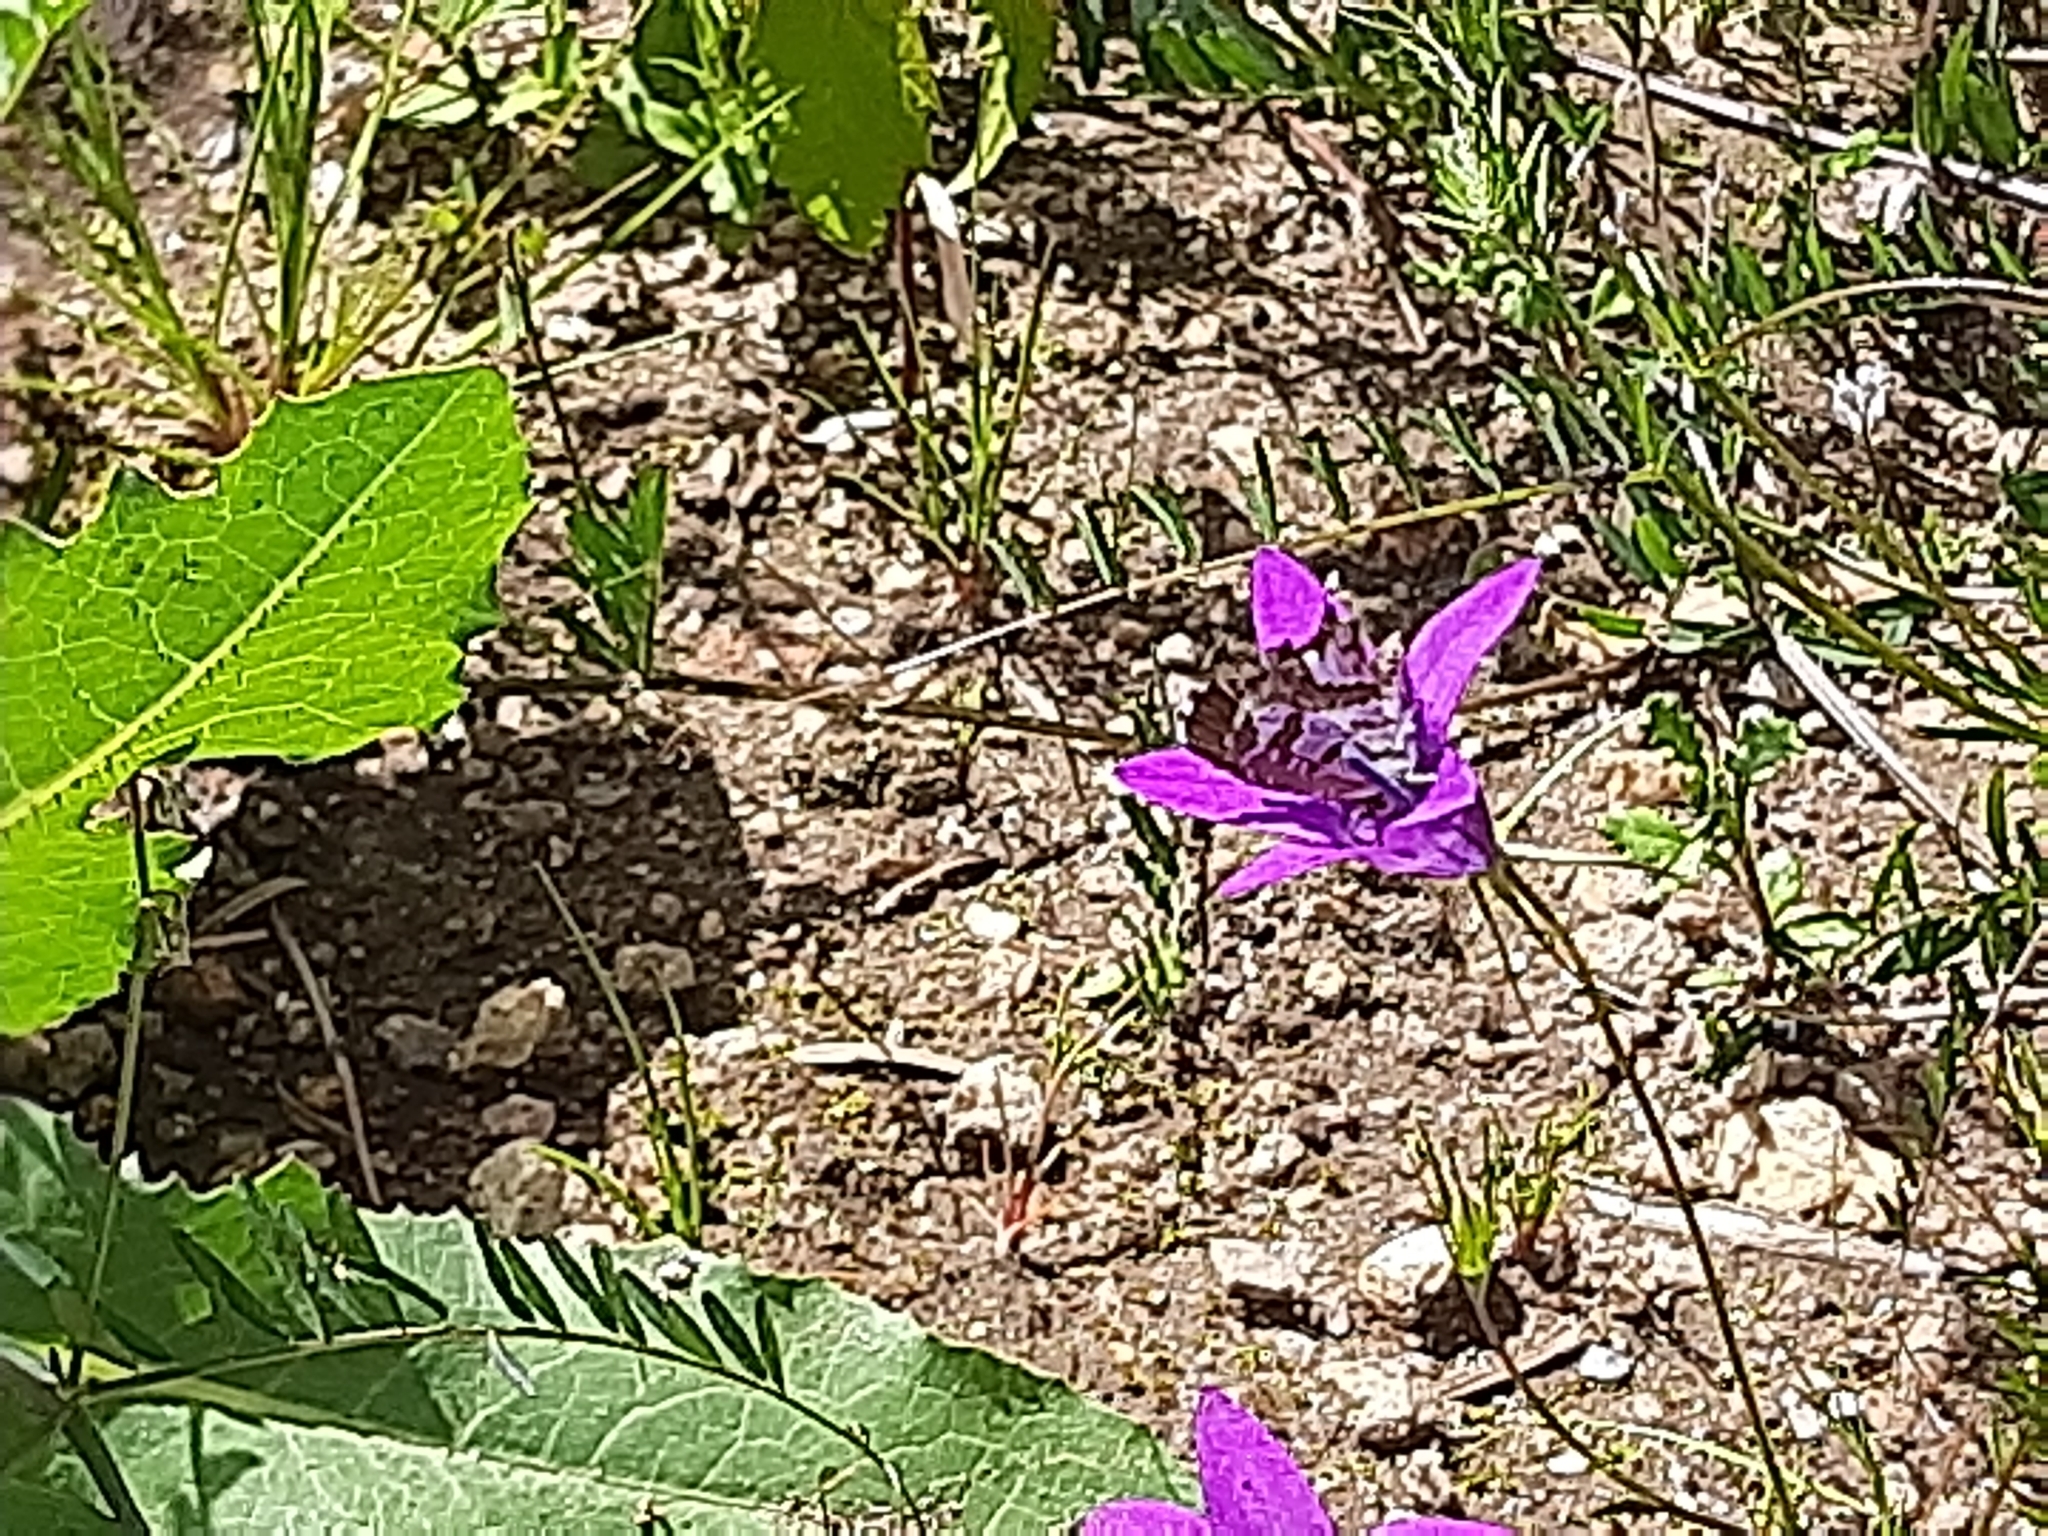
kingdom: Animalia
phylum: Arthropoda
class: Insecta
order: Lepidoptera
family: Lycaenidae
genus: Cacyreus
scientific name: Cacyreus marshalli
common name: Geranium bronze
